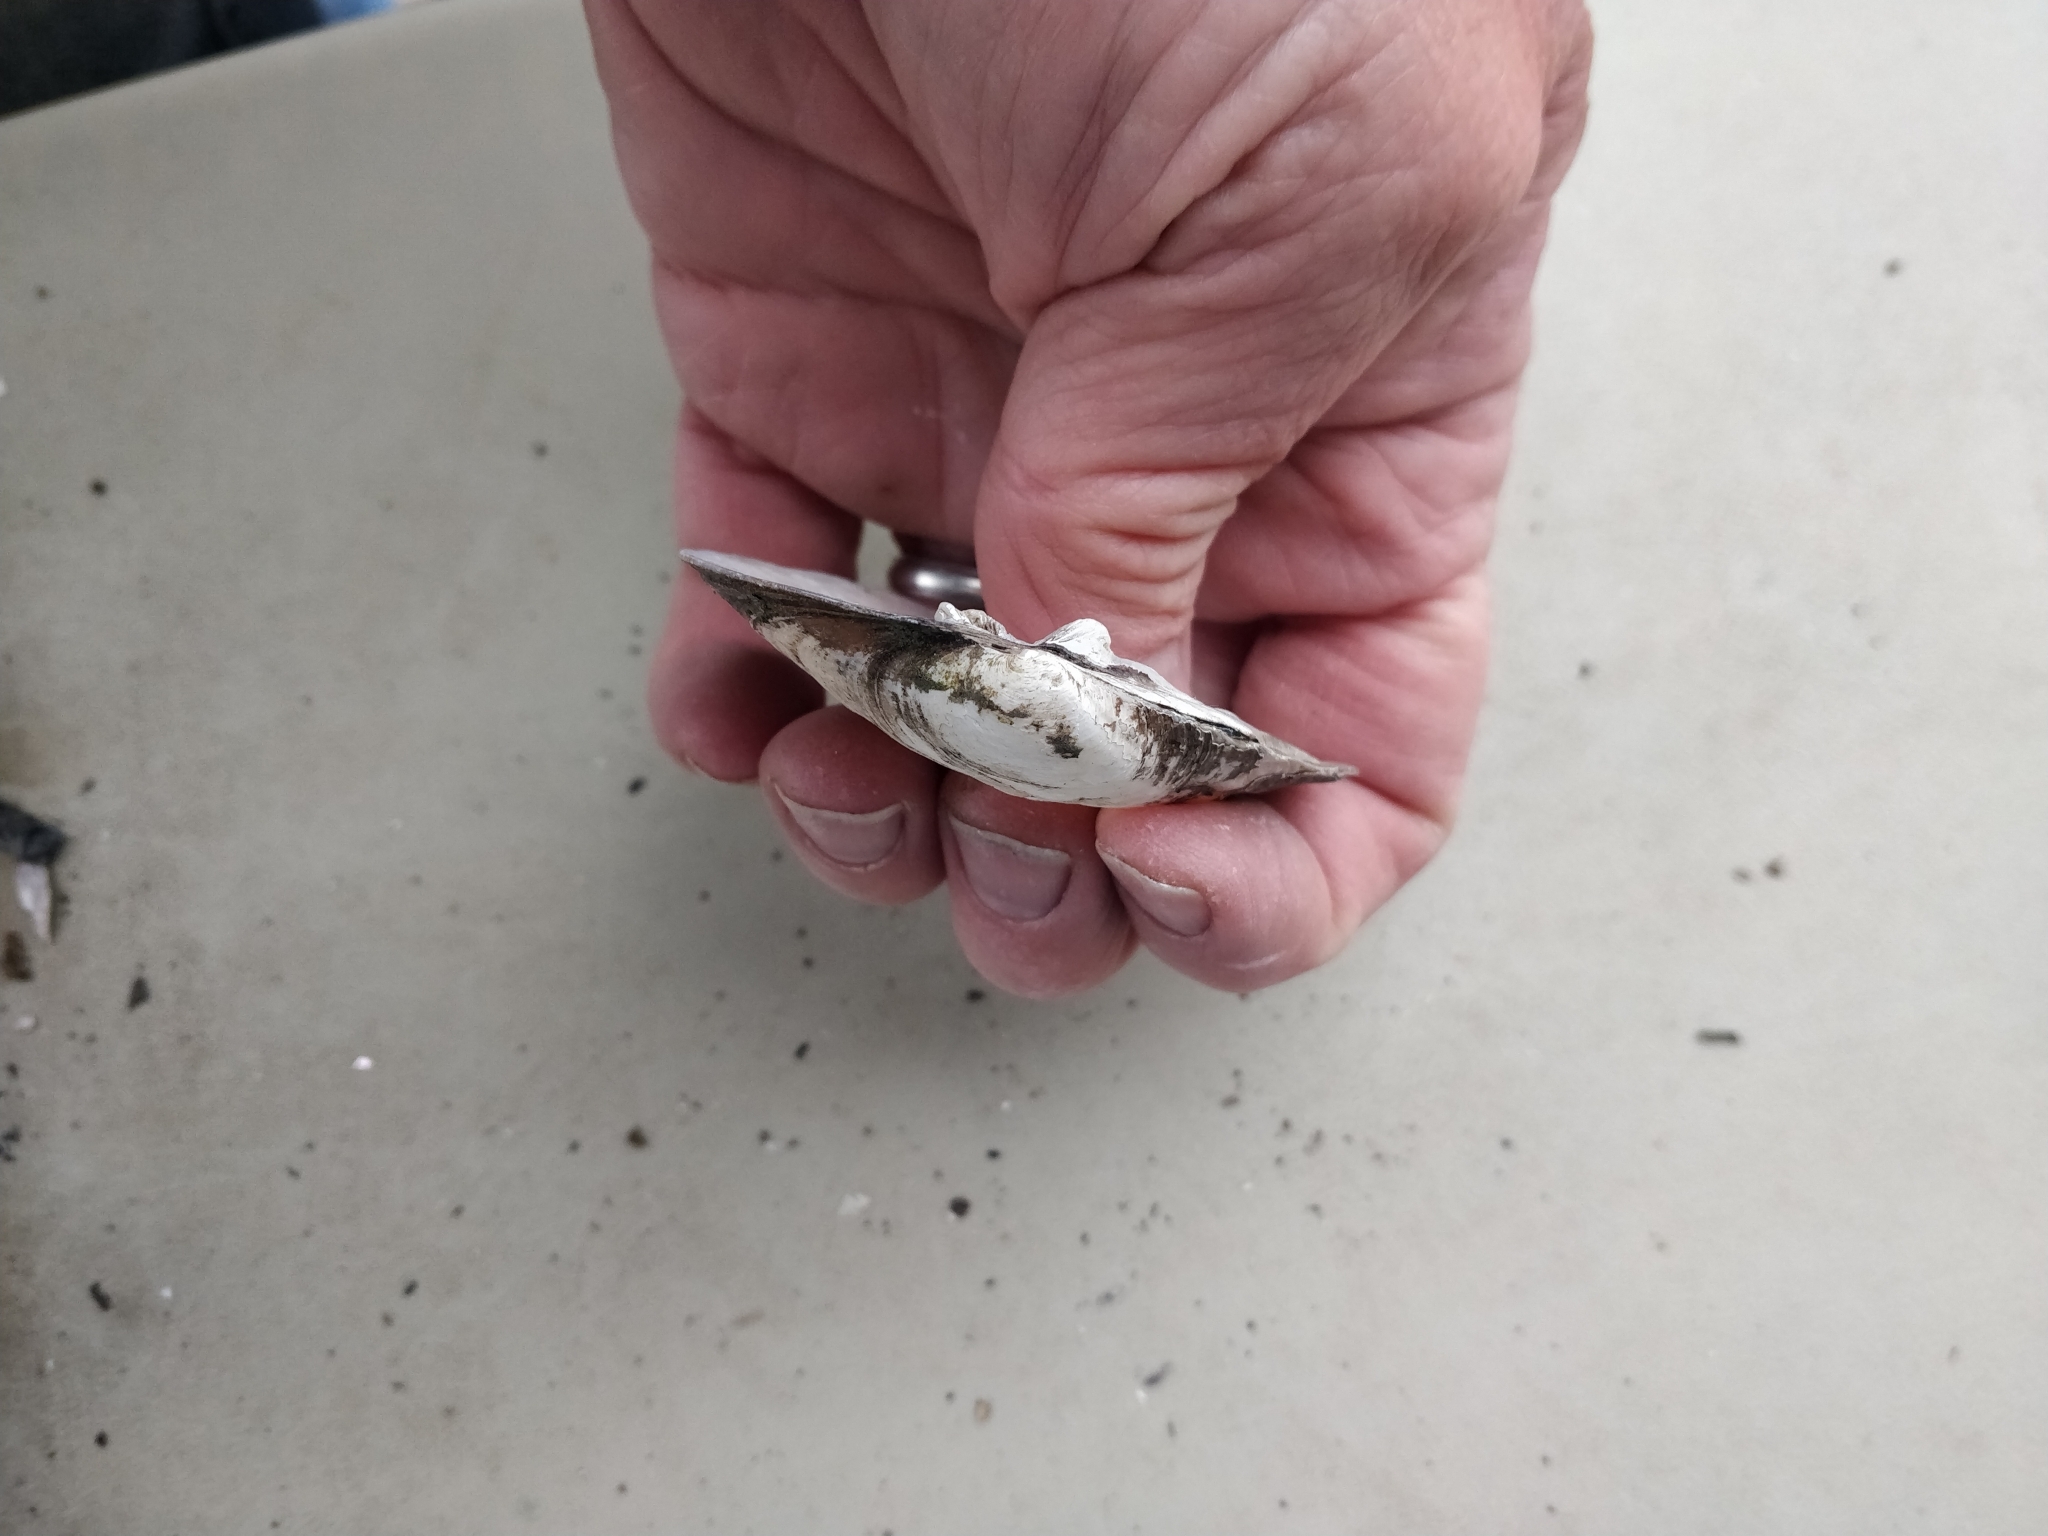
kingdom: Animalia
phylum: Mollusca
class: Bivalvia
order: Unionida
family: Unionidae
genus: Amblema
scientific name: Amblema plicata
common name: Threeridge
